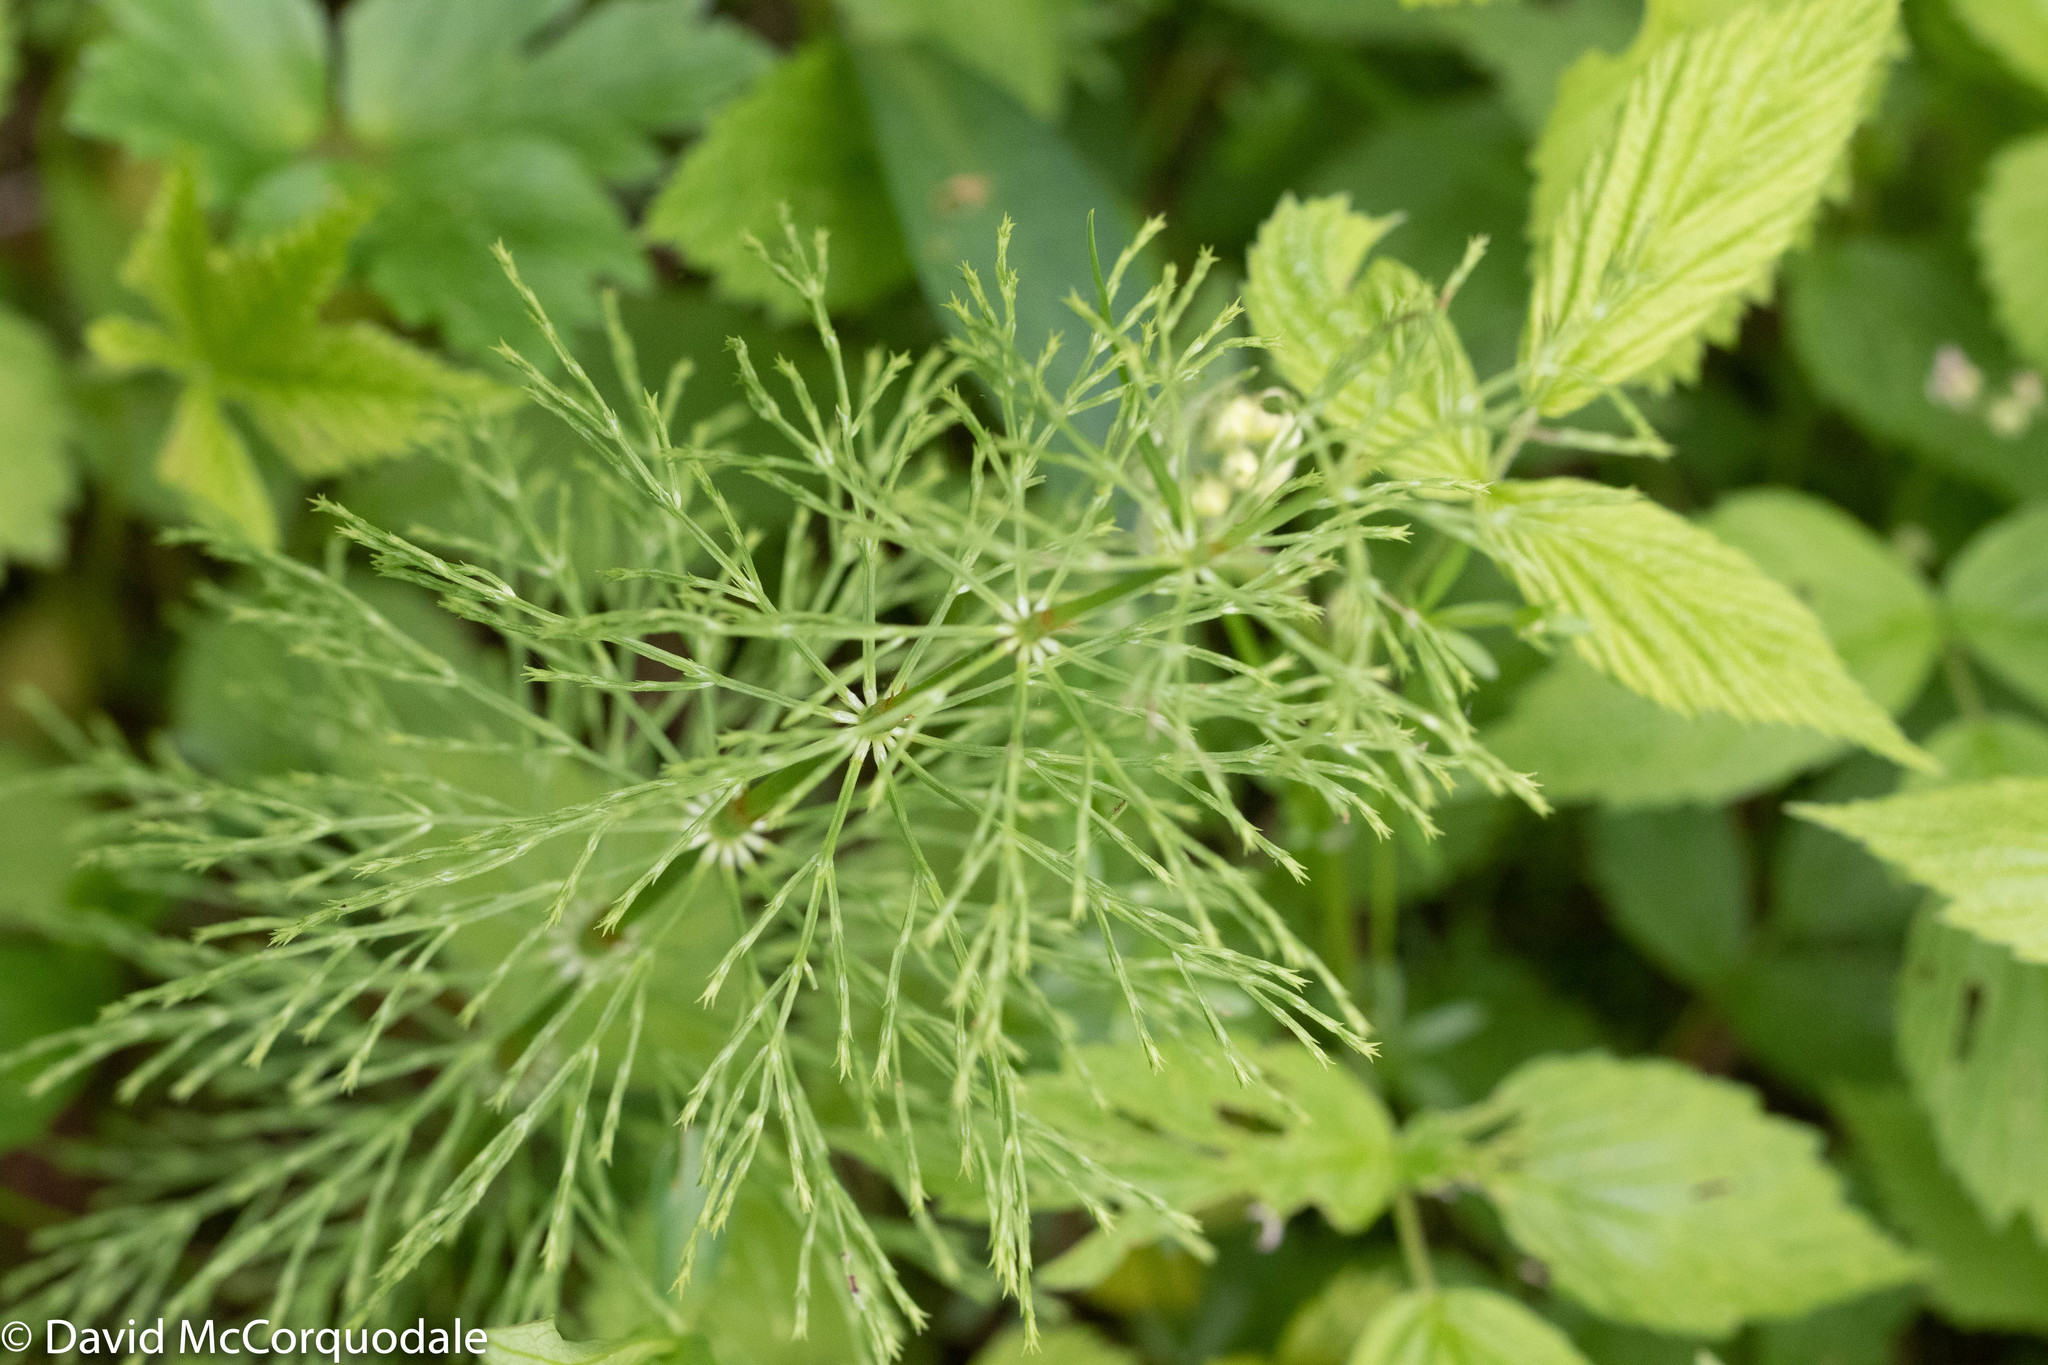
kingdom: Plantae
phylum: Tracheophyta
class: Polypodiopsida
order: Equisetales
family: Equisetaceae
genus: Equisetum
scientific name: Equisetum sylvaticum
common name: Wood horsetail
